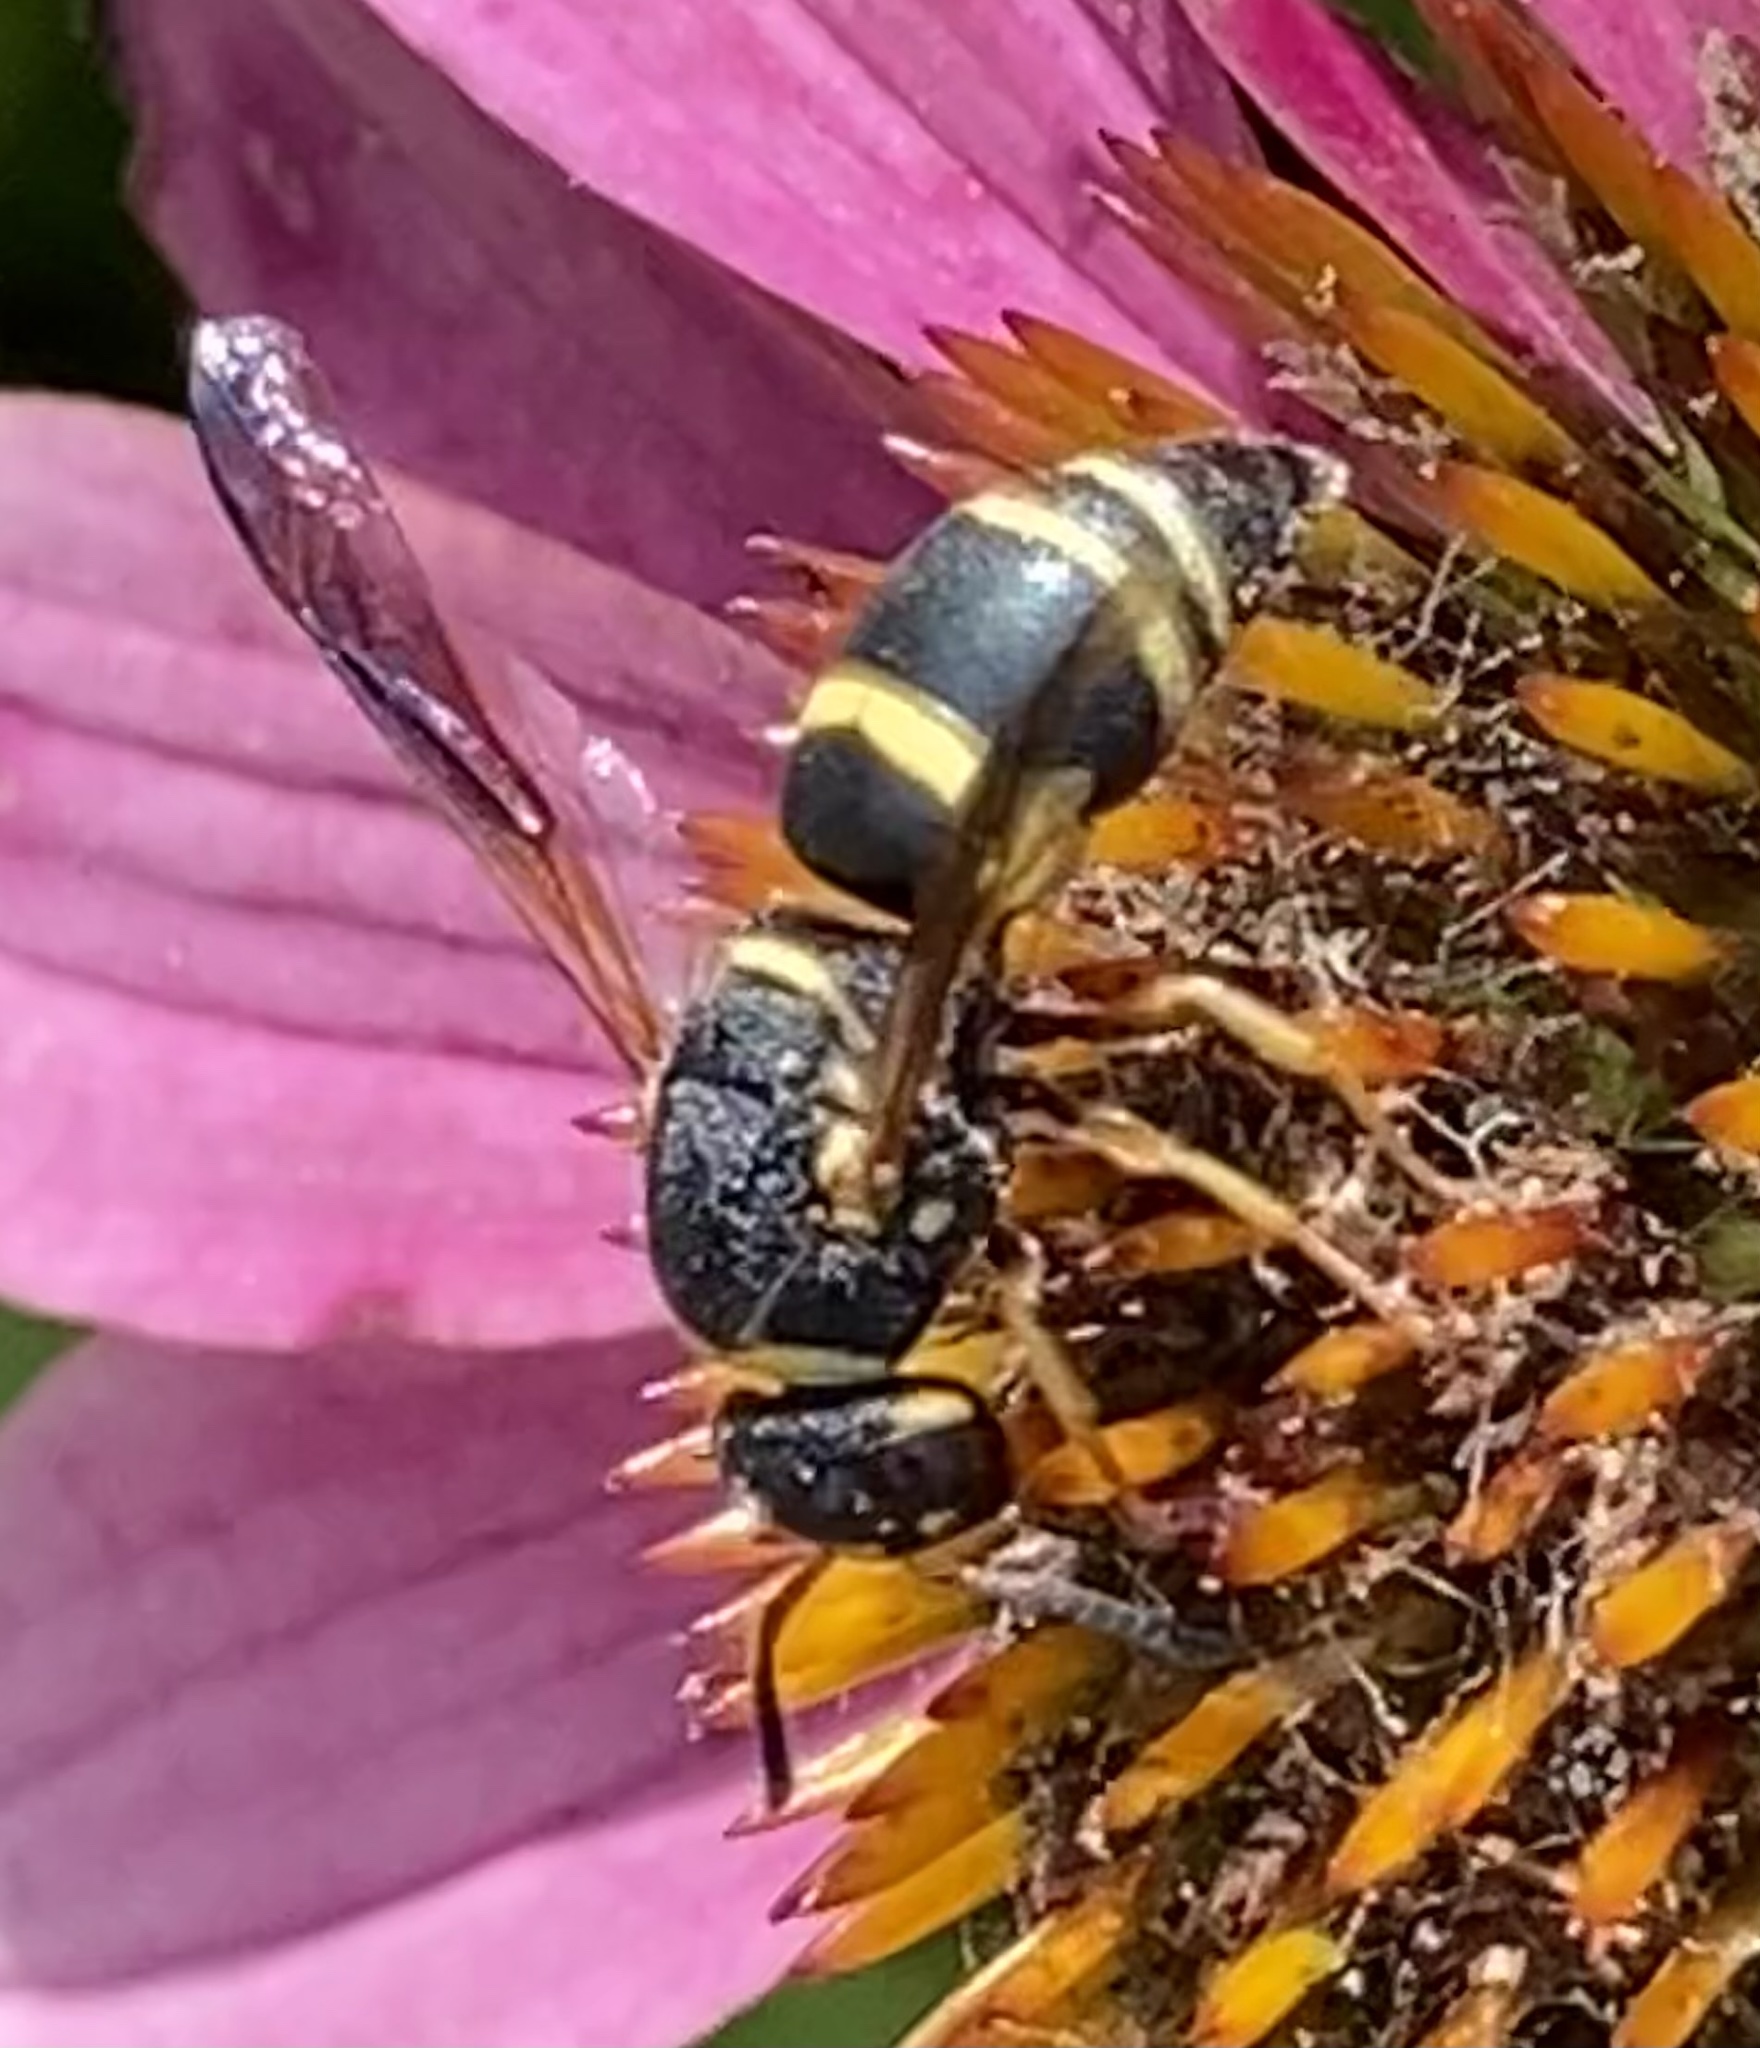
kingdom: Animalia
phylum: Arthropoda
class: Insecta
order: Hymenoptera
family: Eumenidae
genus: Euodynerus
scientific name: Euodynerus hidalgo
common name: Wasp
